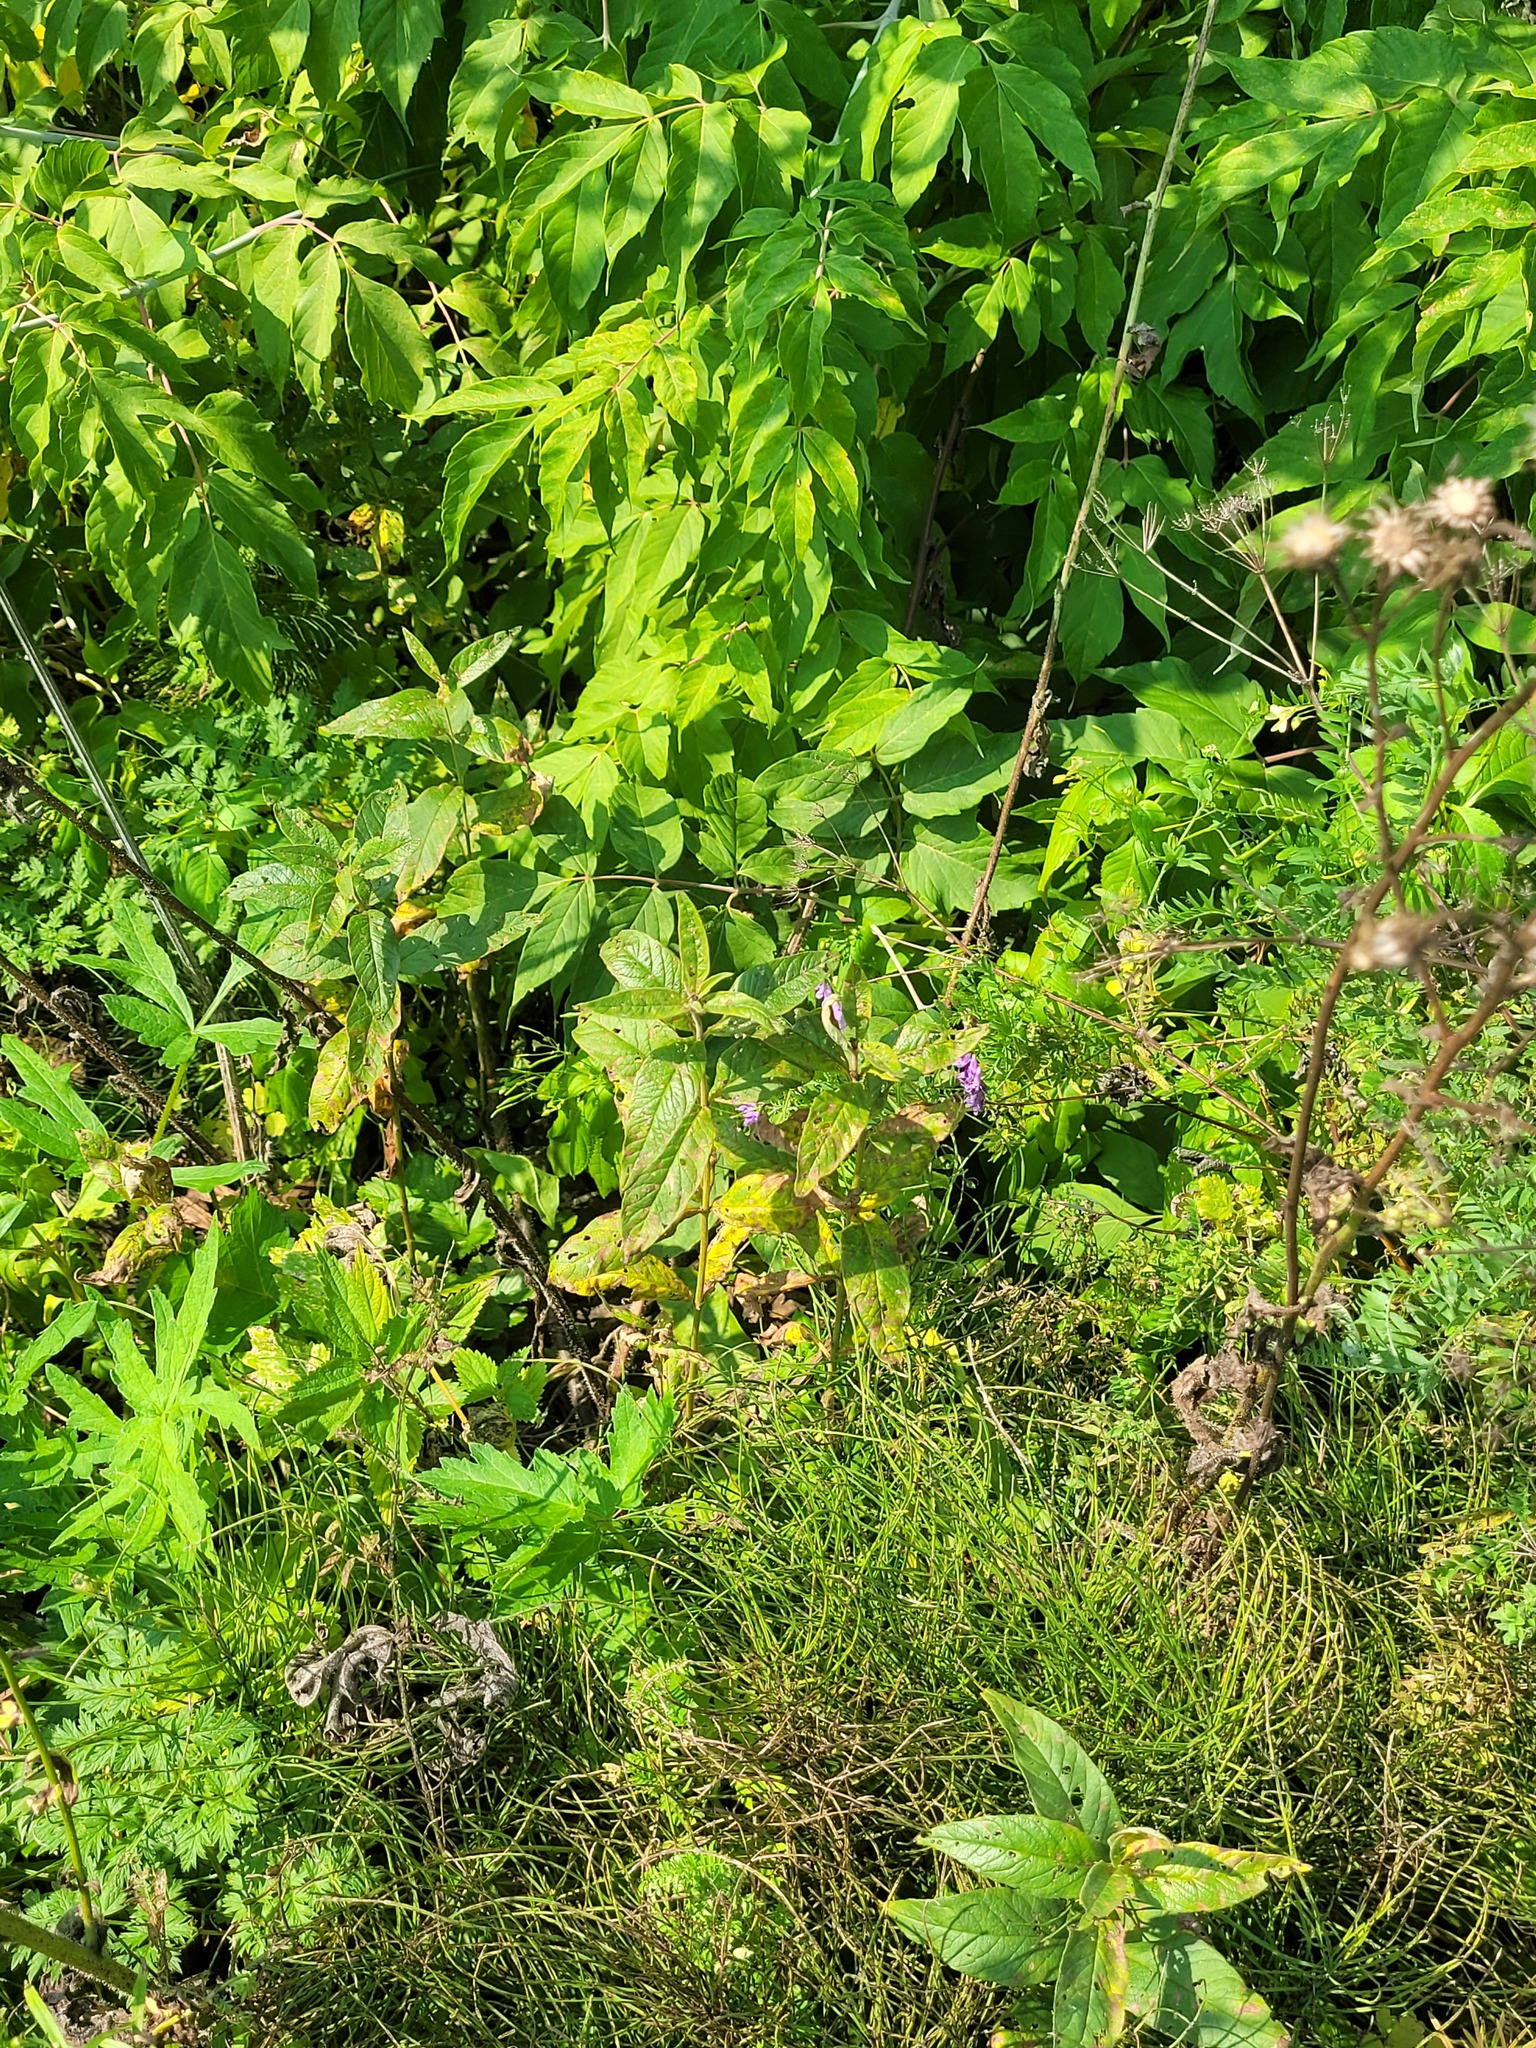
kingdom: Plantae
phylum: Tracheophyta
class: Magnoliopsida
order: Fabales
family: Fabaceae
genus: Vicia
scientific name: Vicia cracca
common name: Bird vetch
